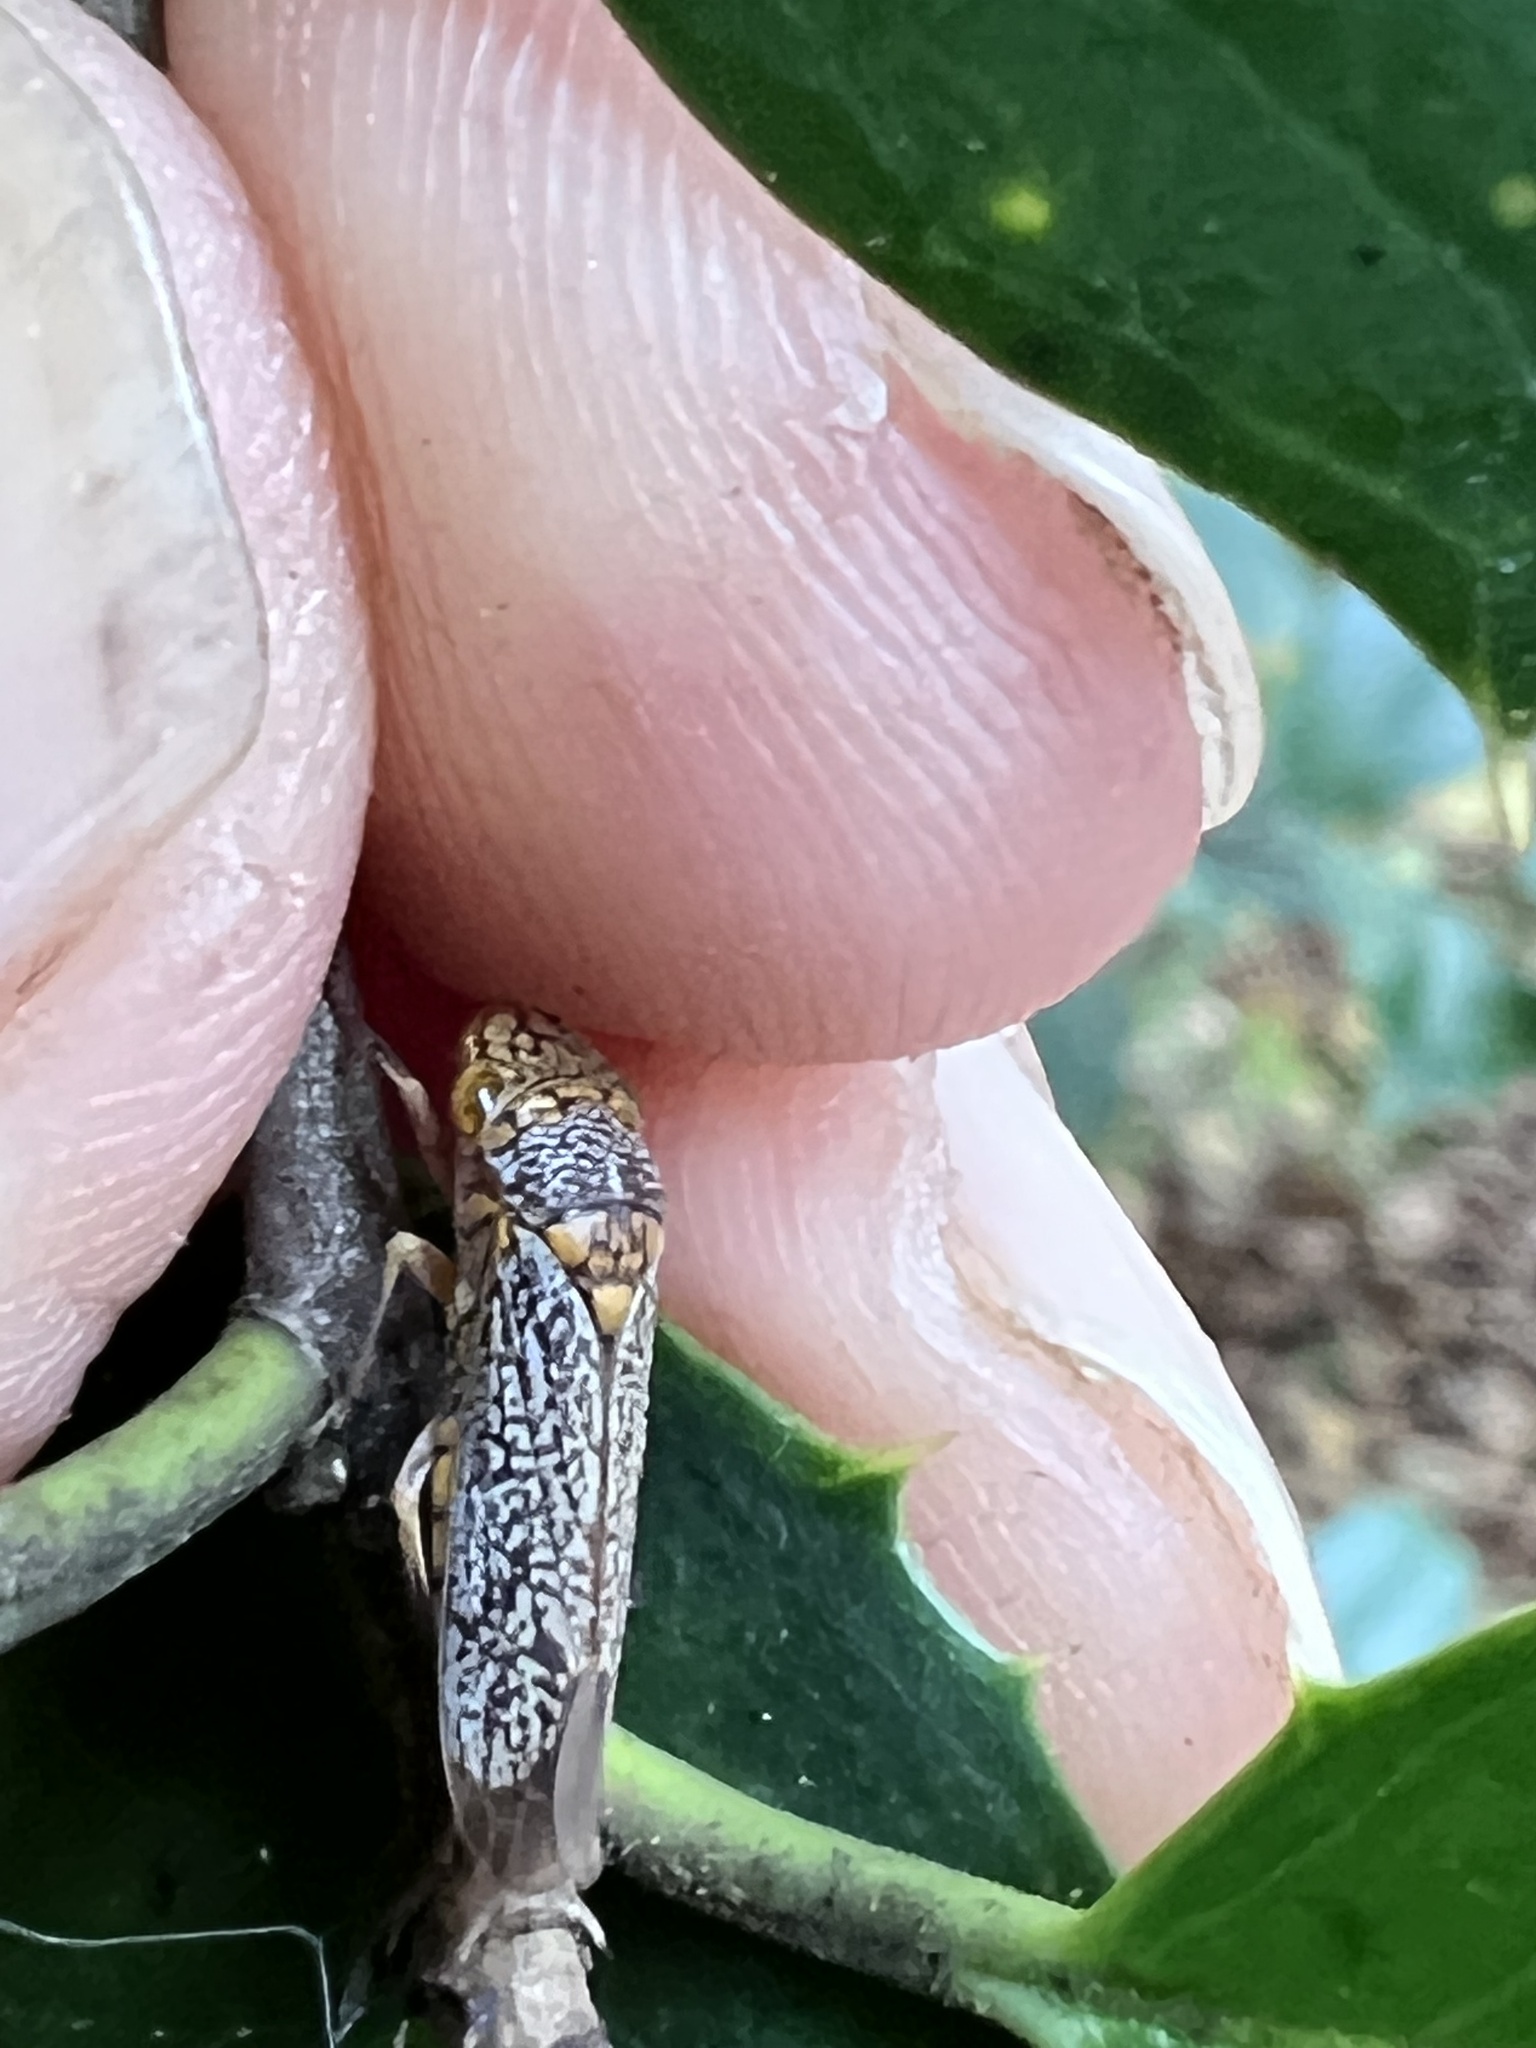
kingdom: Animalia
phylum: Arthropoda
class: Insecta
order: Hemiptera
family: Cicadellidae
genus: Oncometopia
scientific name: Oncometopia orbona
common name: Broad-headed sharpshooter
